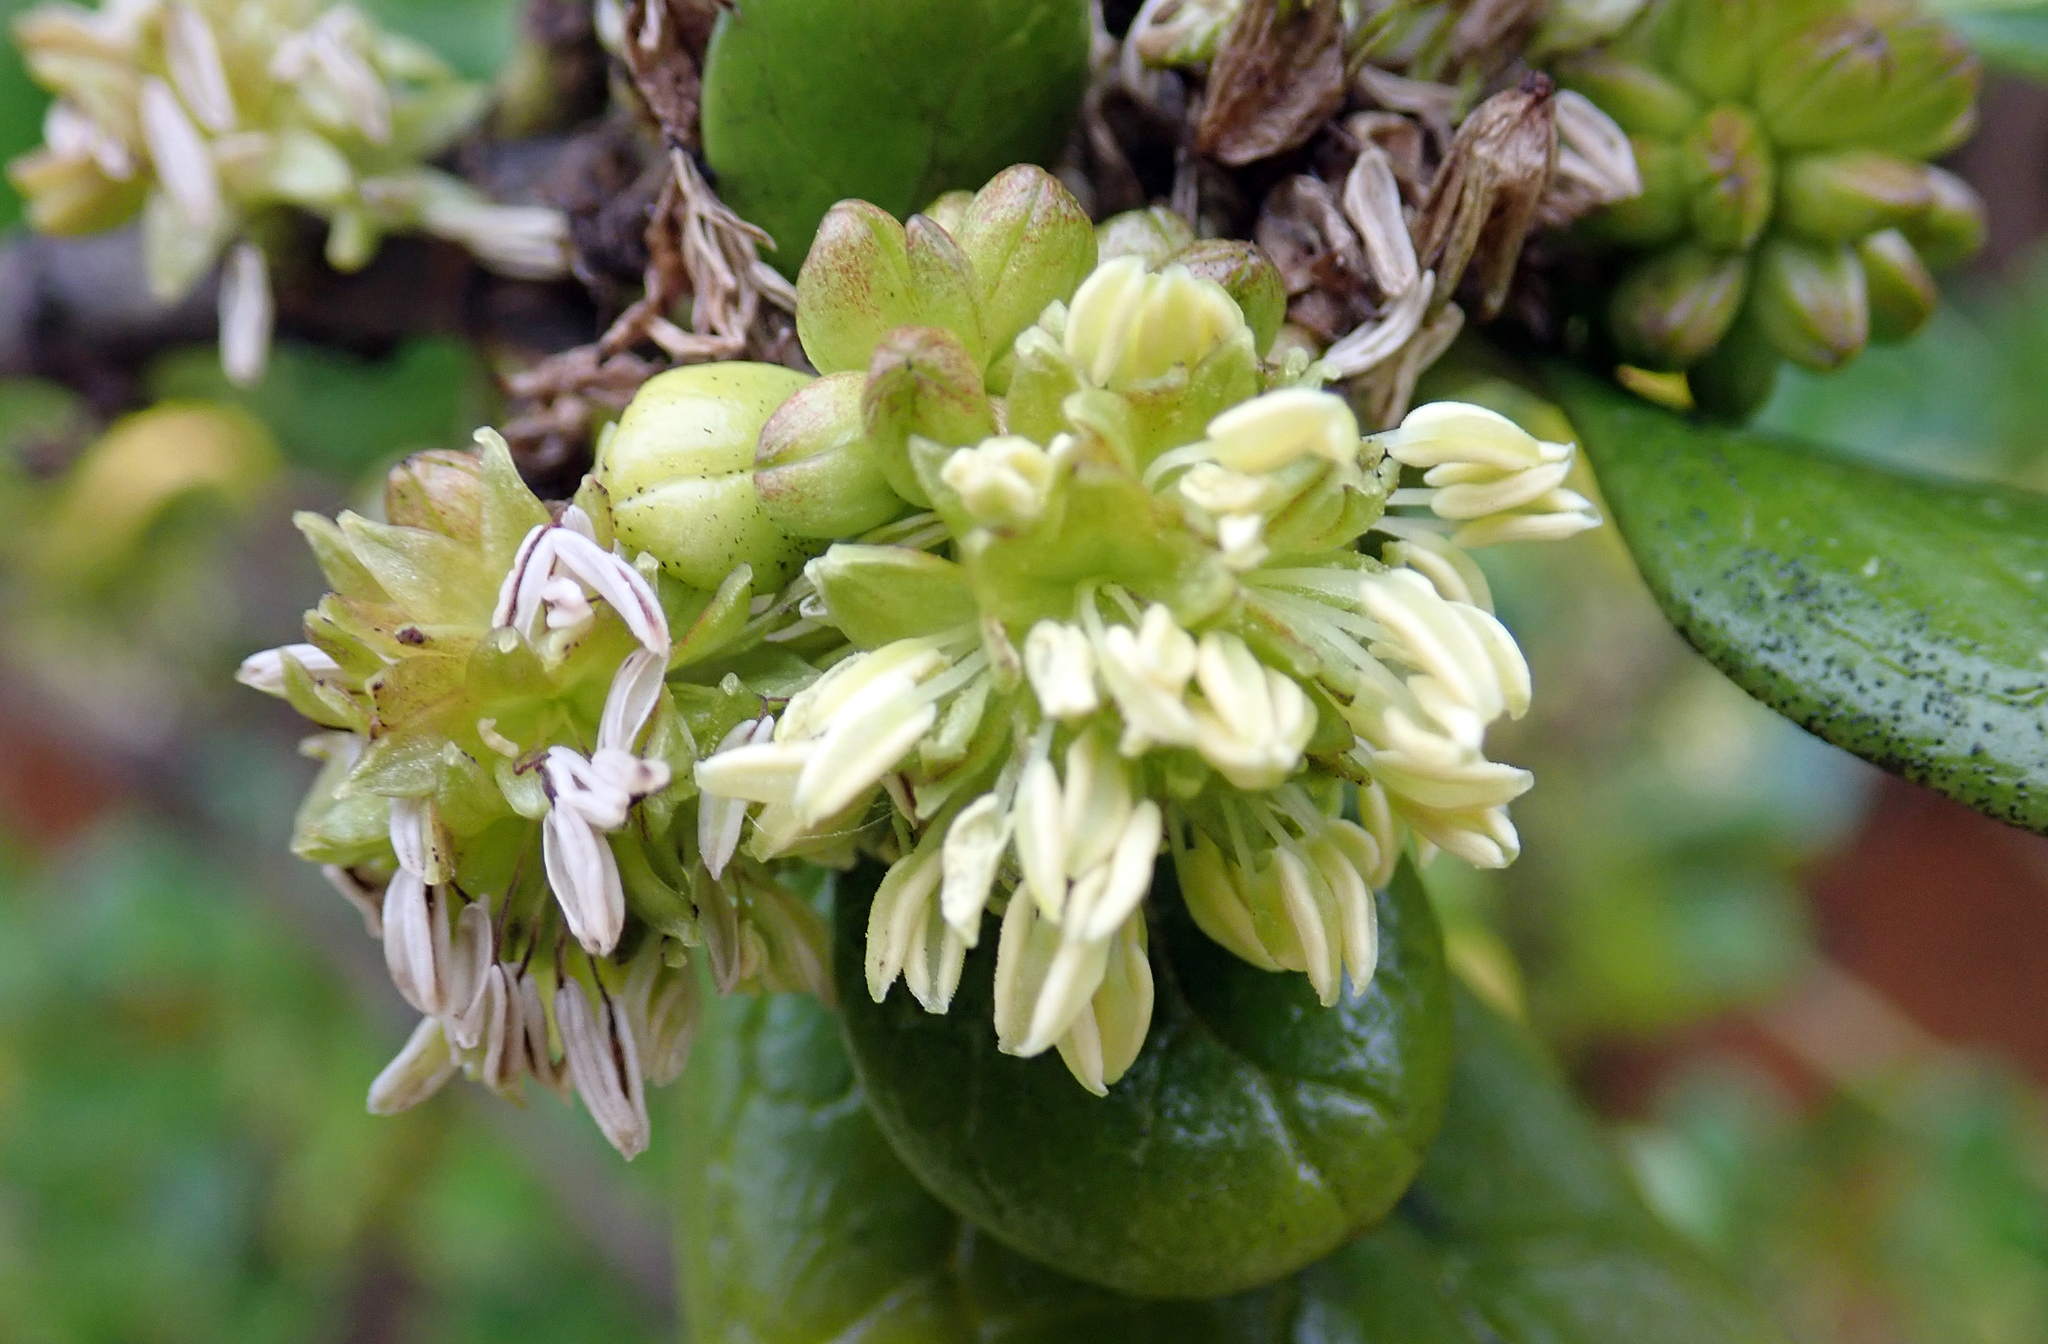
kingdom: Plantae
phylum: Tracheophyta
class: Magnoliopsida
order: Gentianales
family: Rubiaceae
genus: Coprosma
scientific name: Coprosma repens
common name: Tree bedstraw
